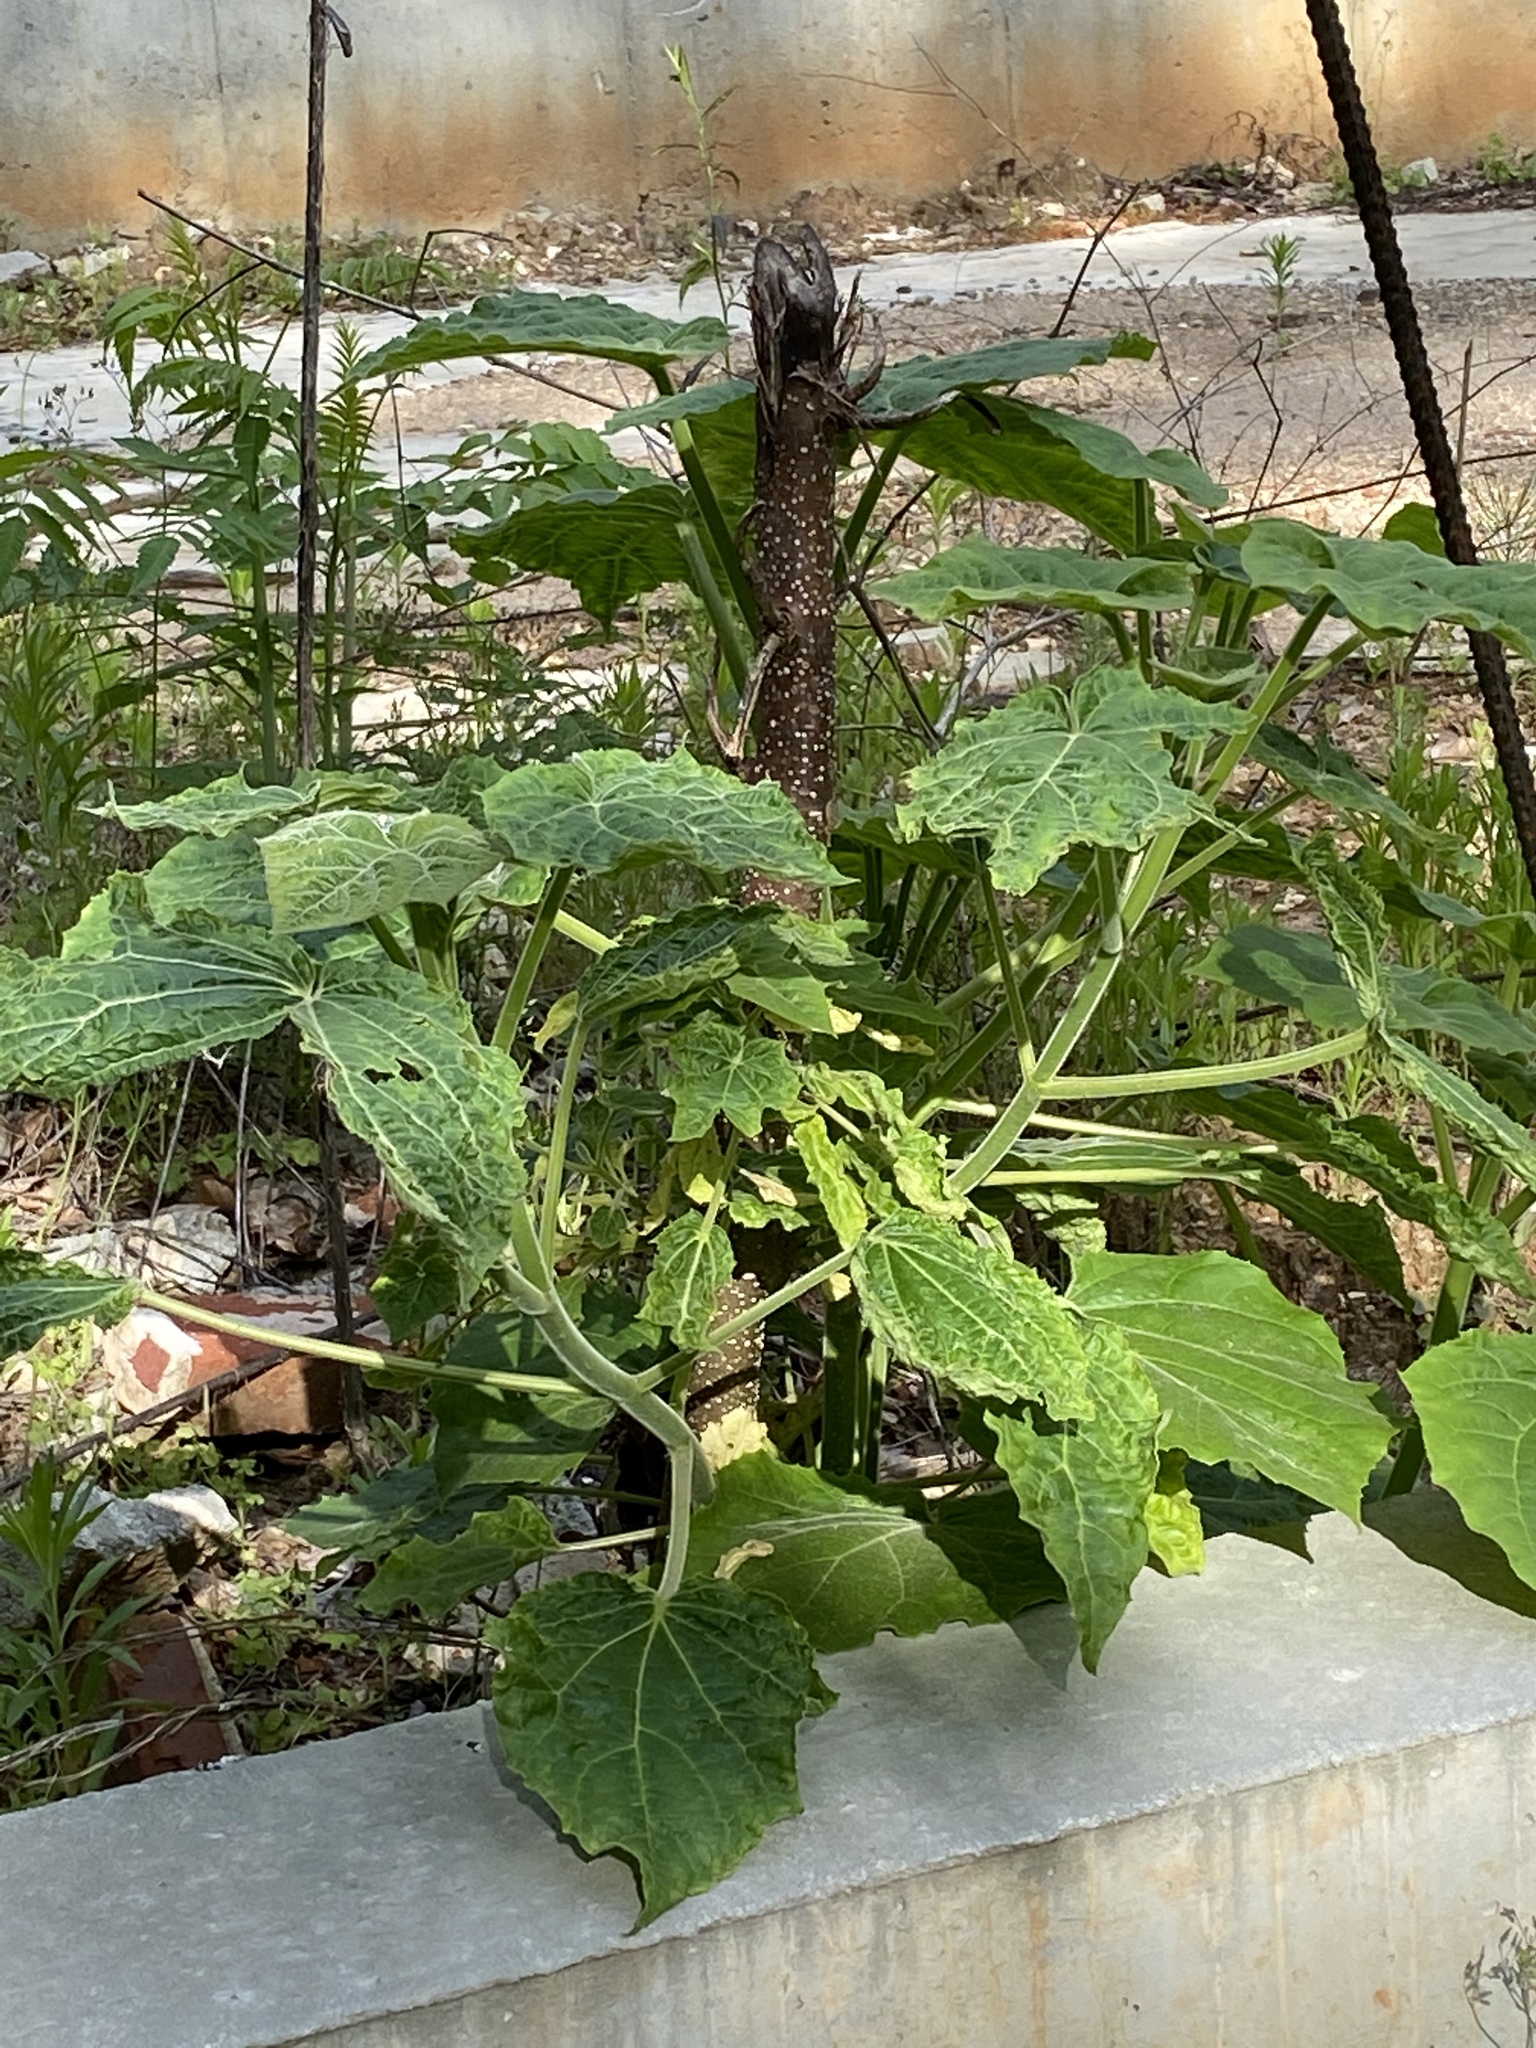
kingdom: Plantae
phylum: Tracheophyta
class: Magnoliopsida
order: Lamiales
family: Paulowniaceae
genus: Paulownia
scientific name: Paulownia tomentosa
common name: Foxglove-tree
